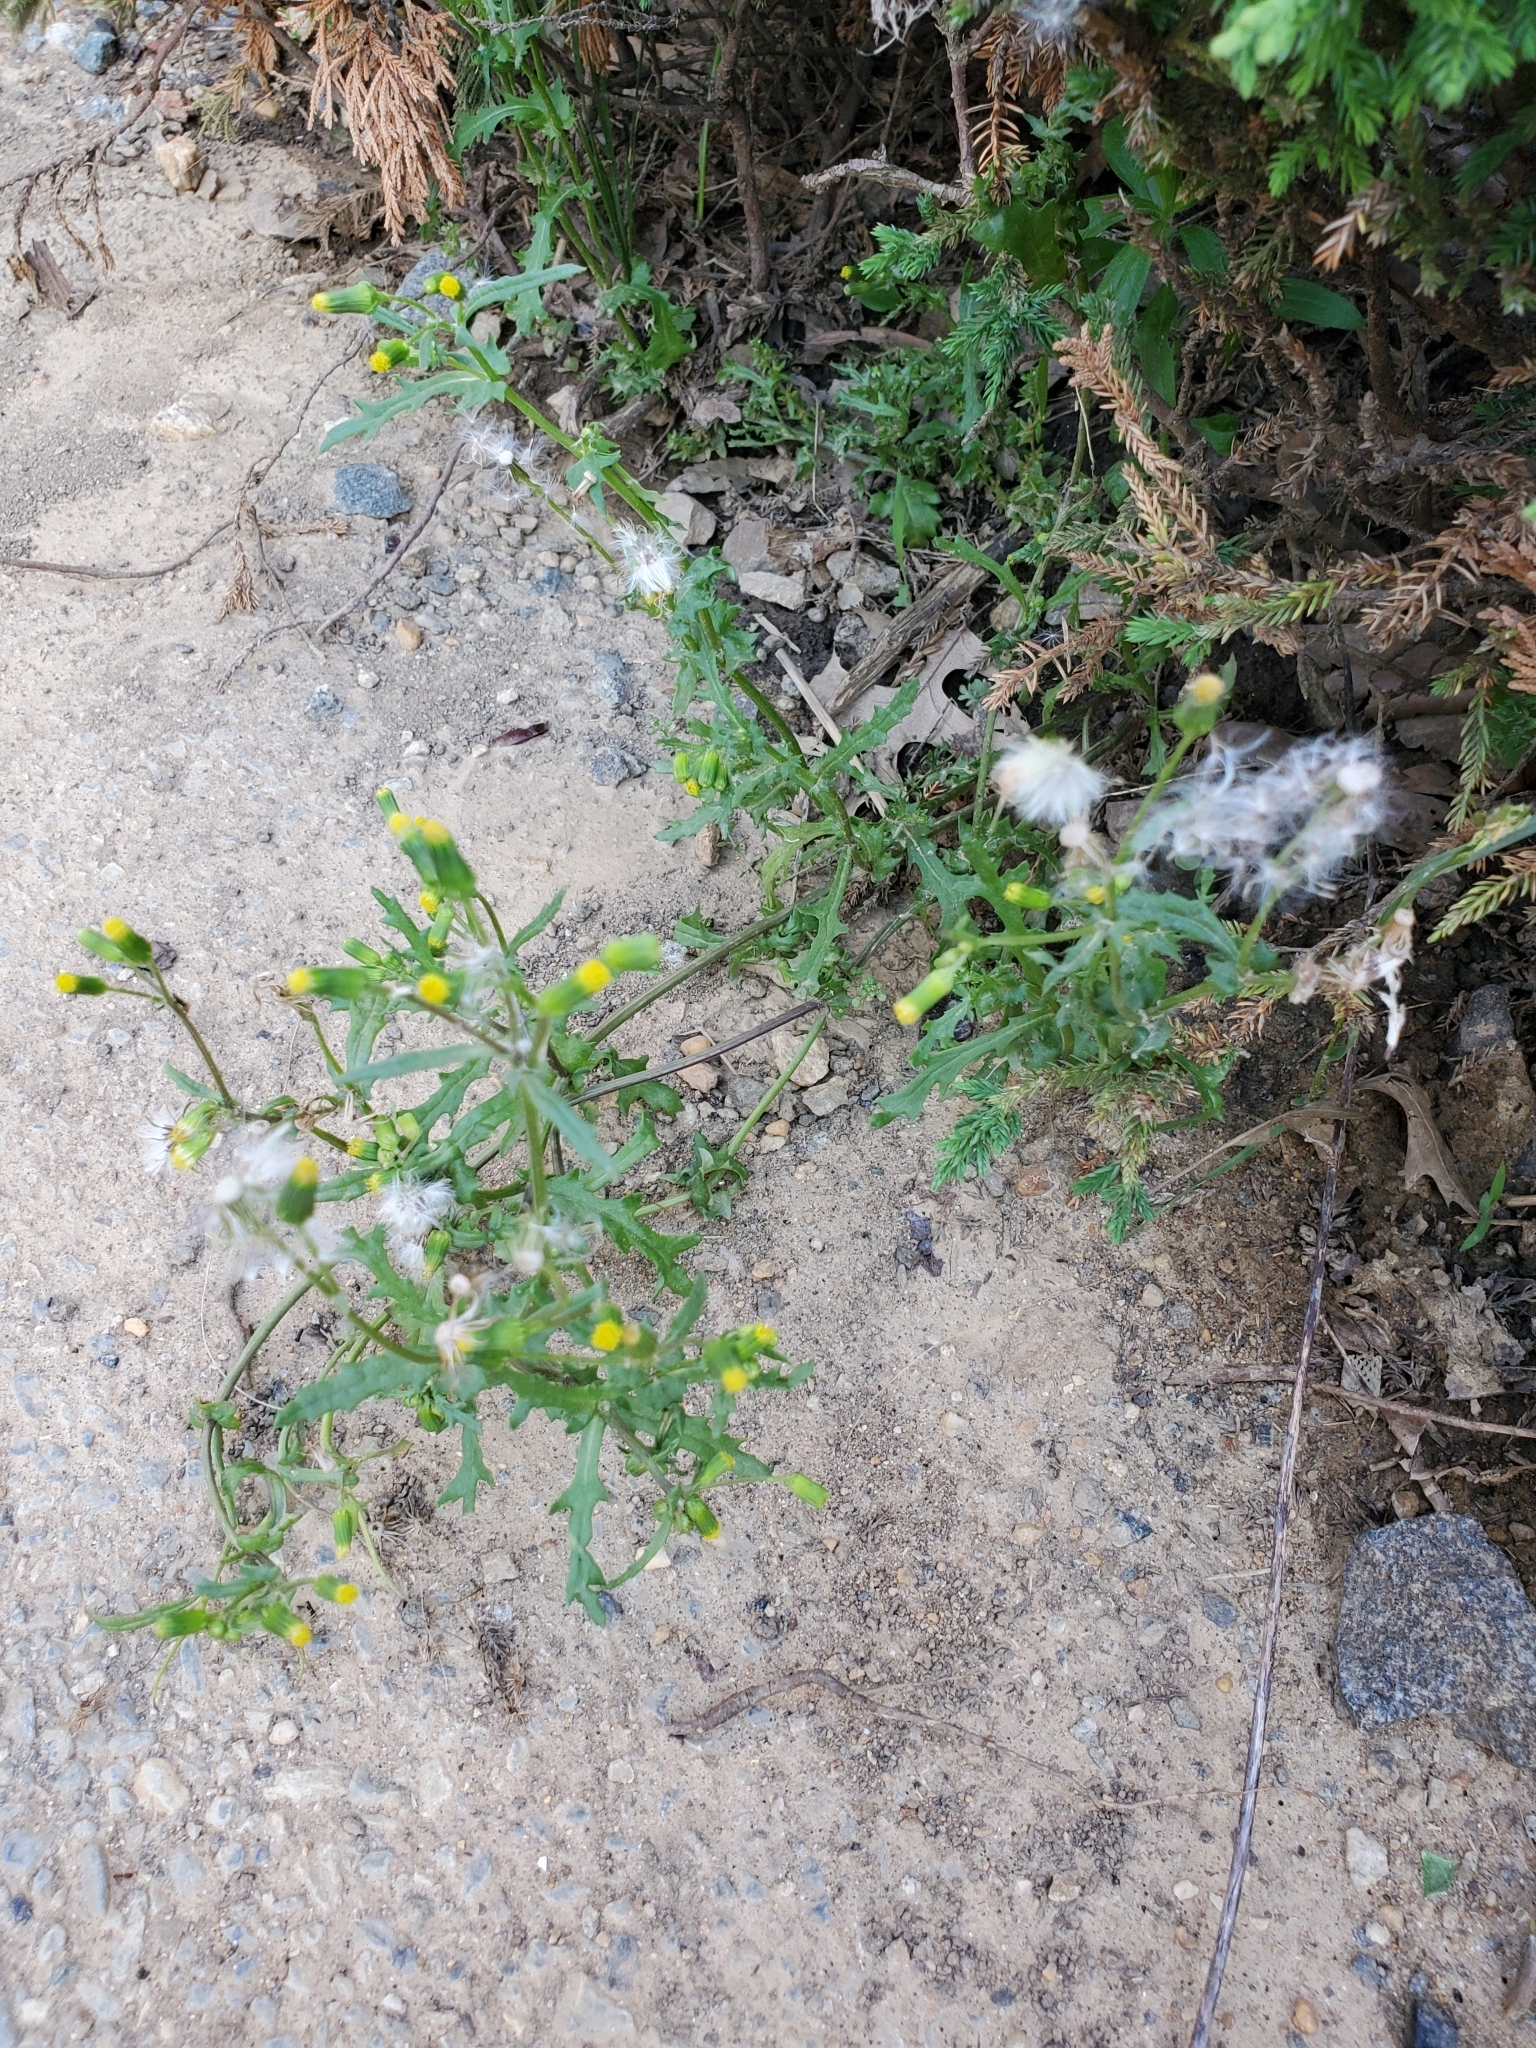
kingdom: Plantae
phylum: Tracheophyta
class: Magnoliopsida
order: Asterales
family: Asteraceae
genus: Senecio
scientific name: Senecio vulgaris
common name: Old-man-in-the-spring
